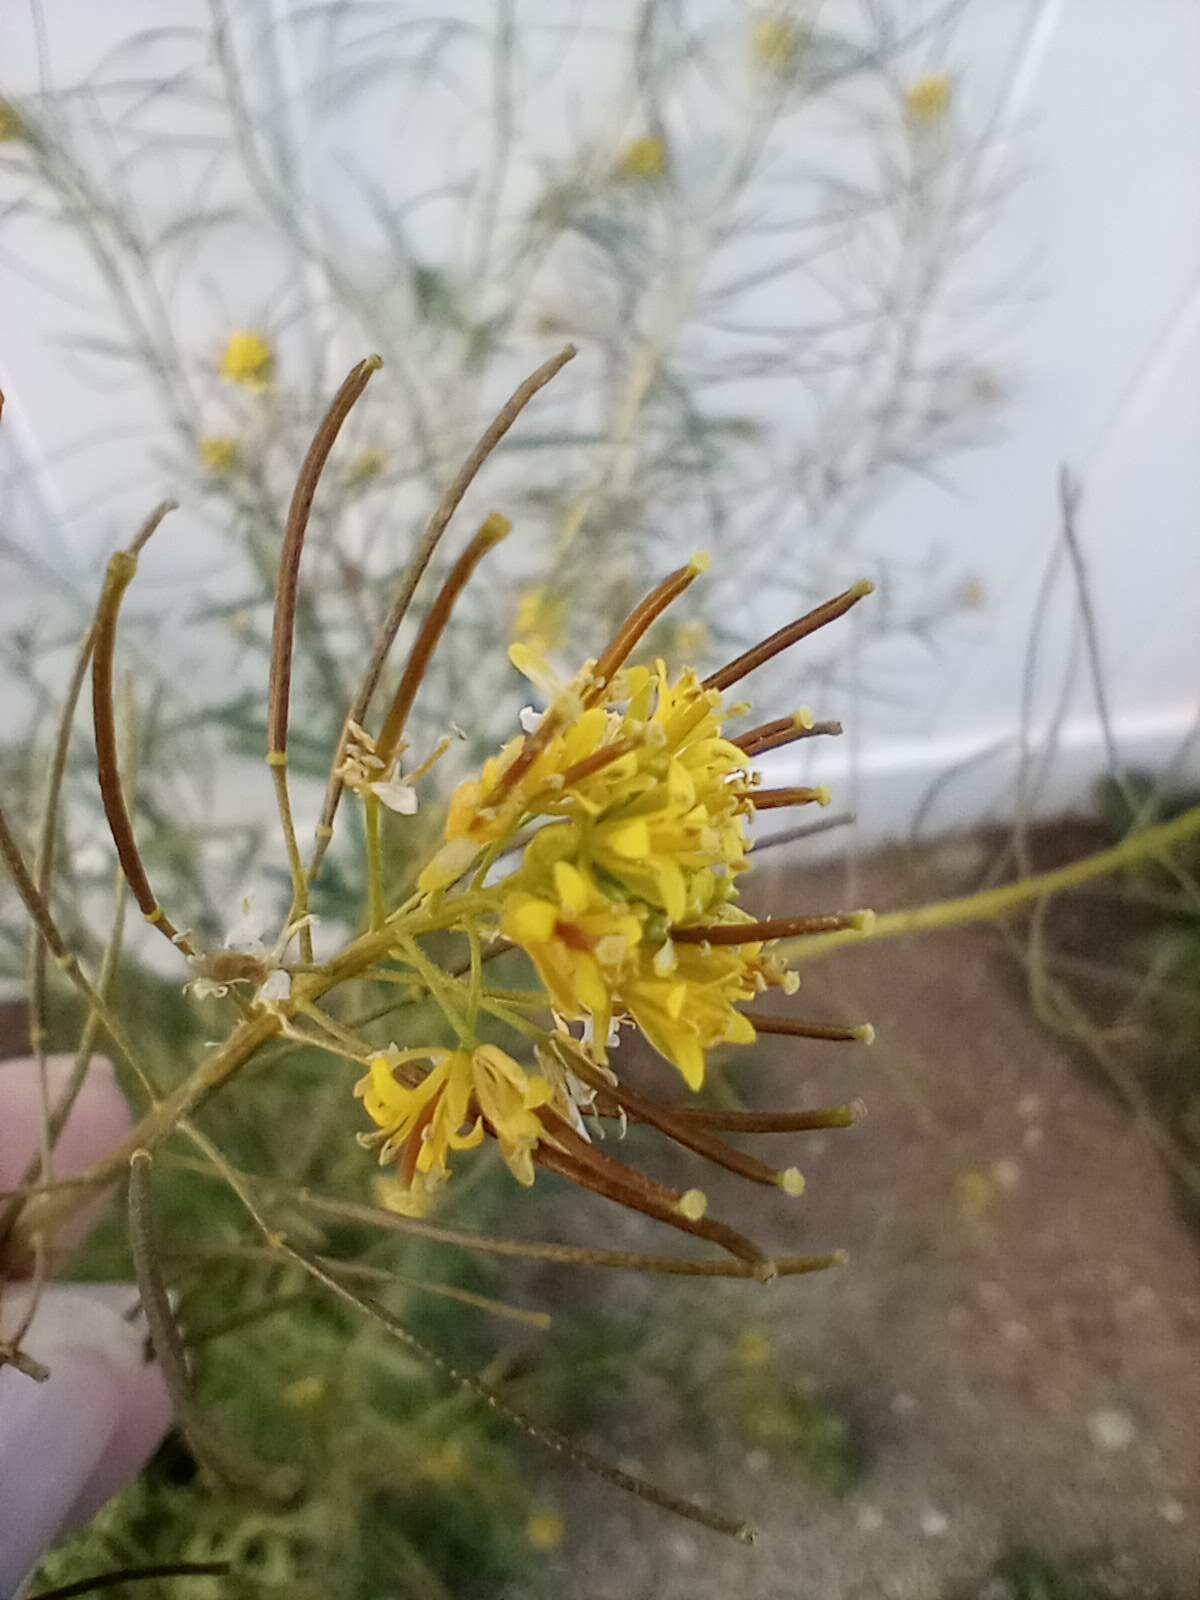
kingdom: Plantae
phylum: Tracheophyta
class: Magnoliopsida
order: Brassicales
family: Brassicaceae
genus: Sisymbrium
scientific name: Sisymbrium irio
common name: London rocket
